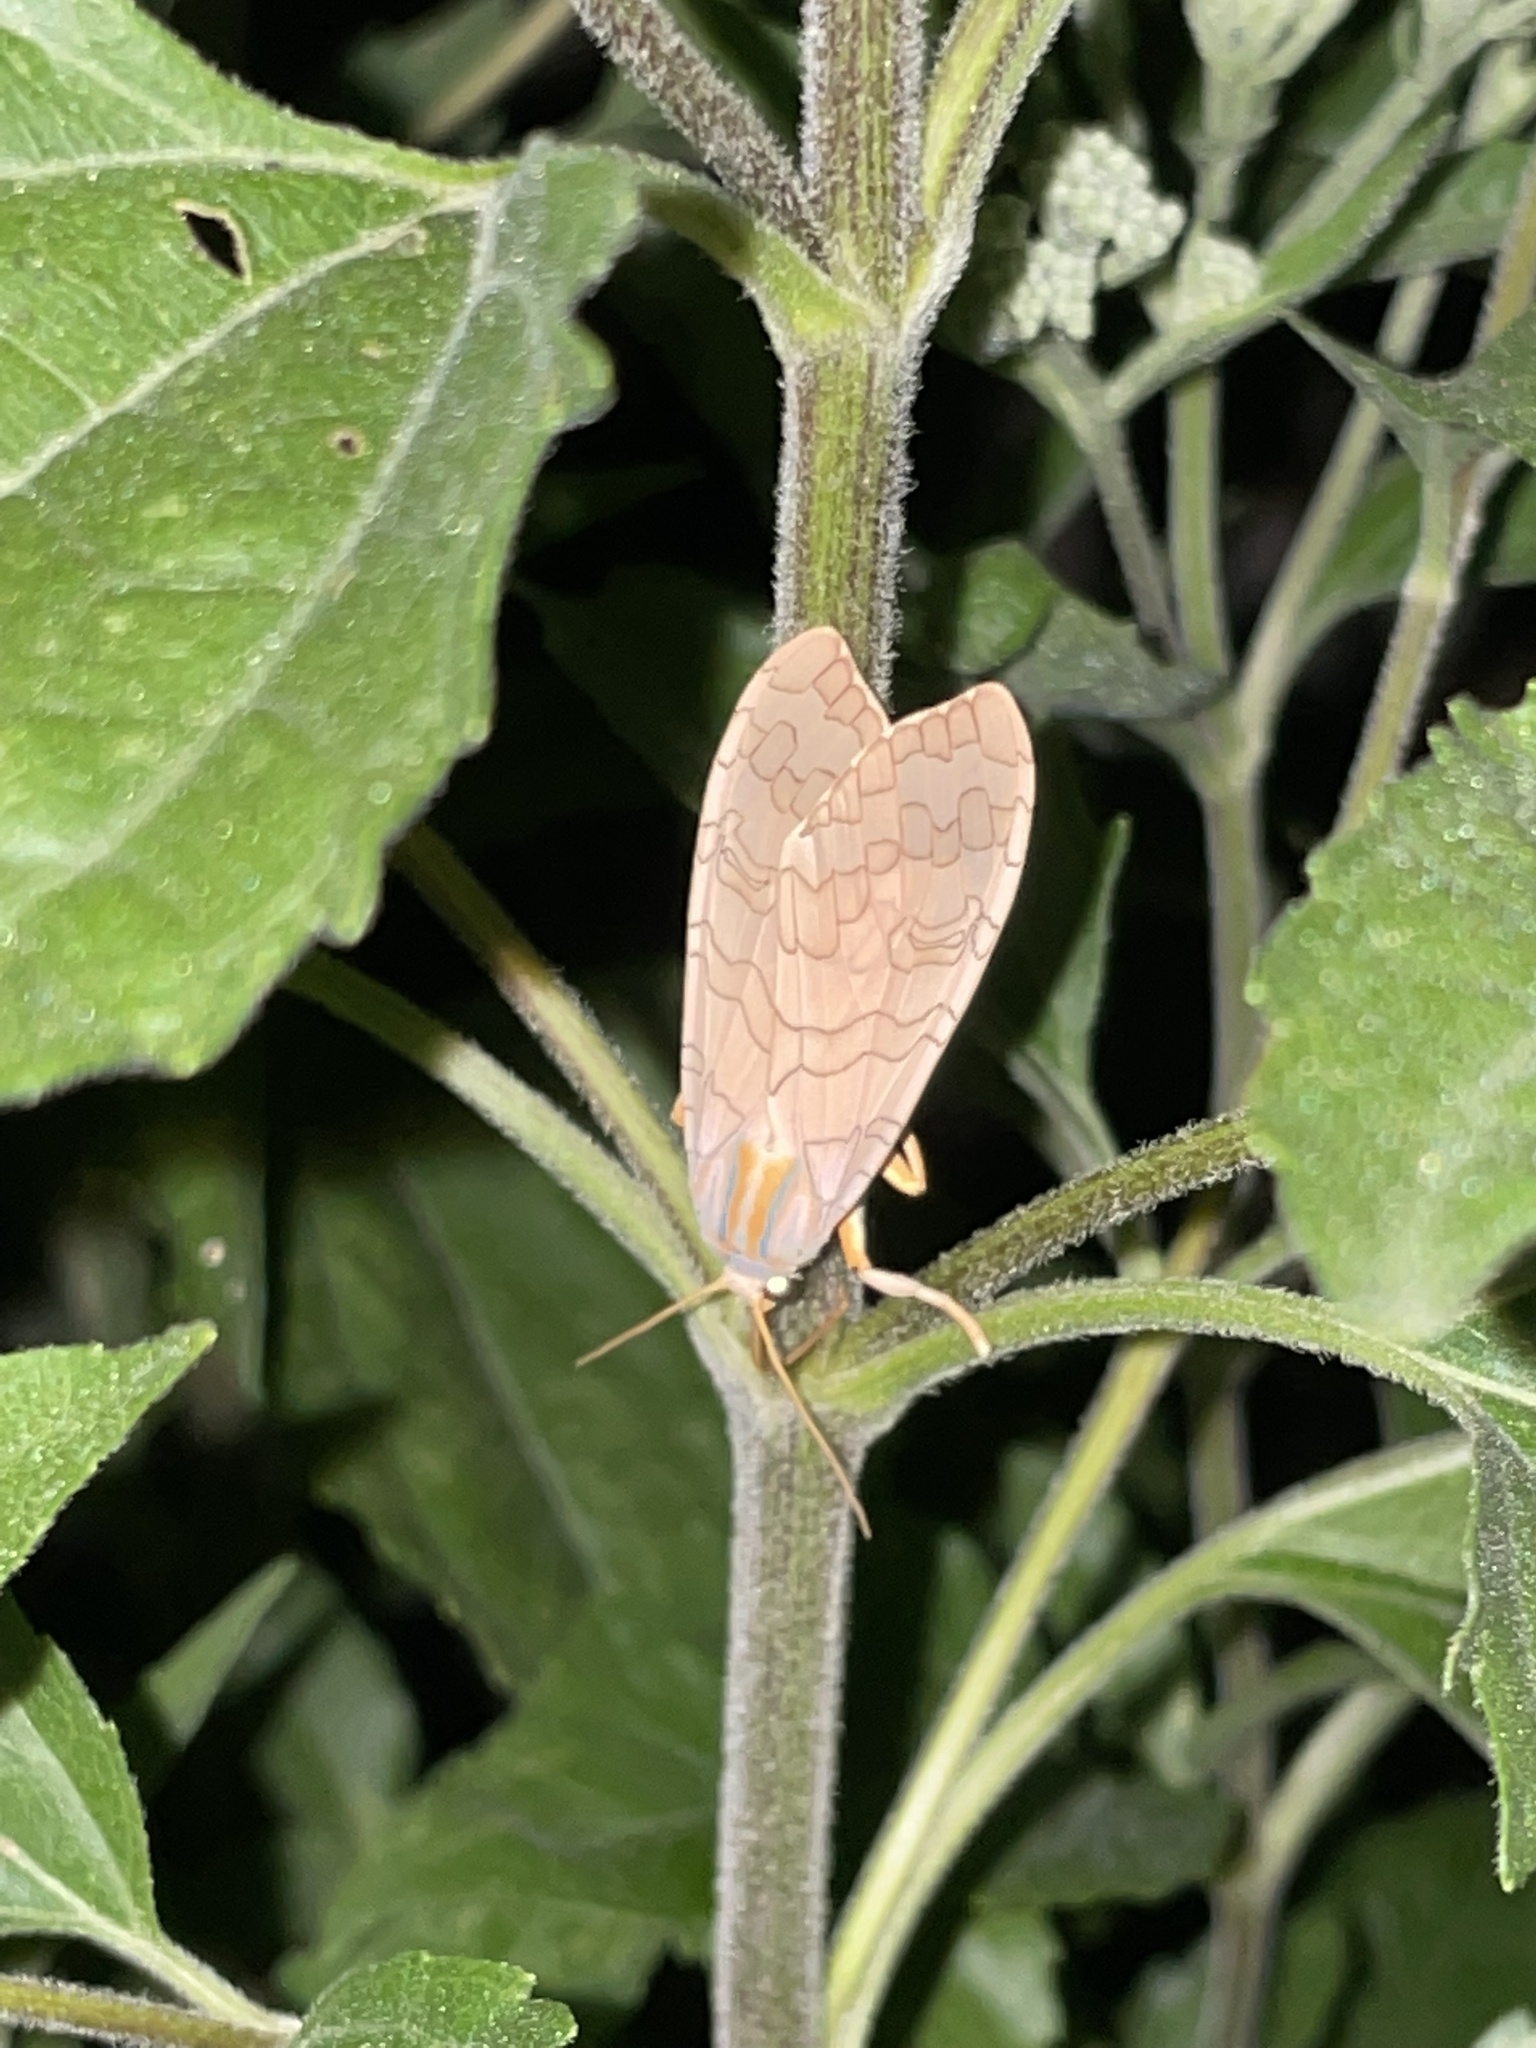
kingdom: Animalia
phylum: Arthropoda
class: Insecta
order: Lepidoptera
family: Erebidae
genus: Halysidota
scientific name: Halysidota
